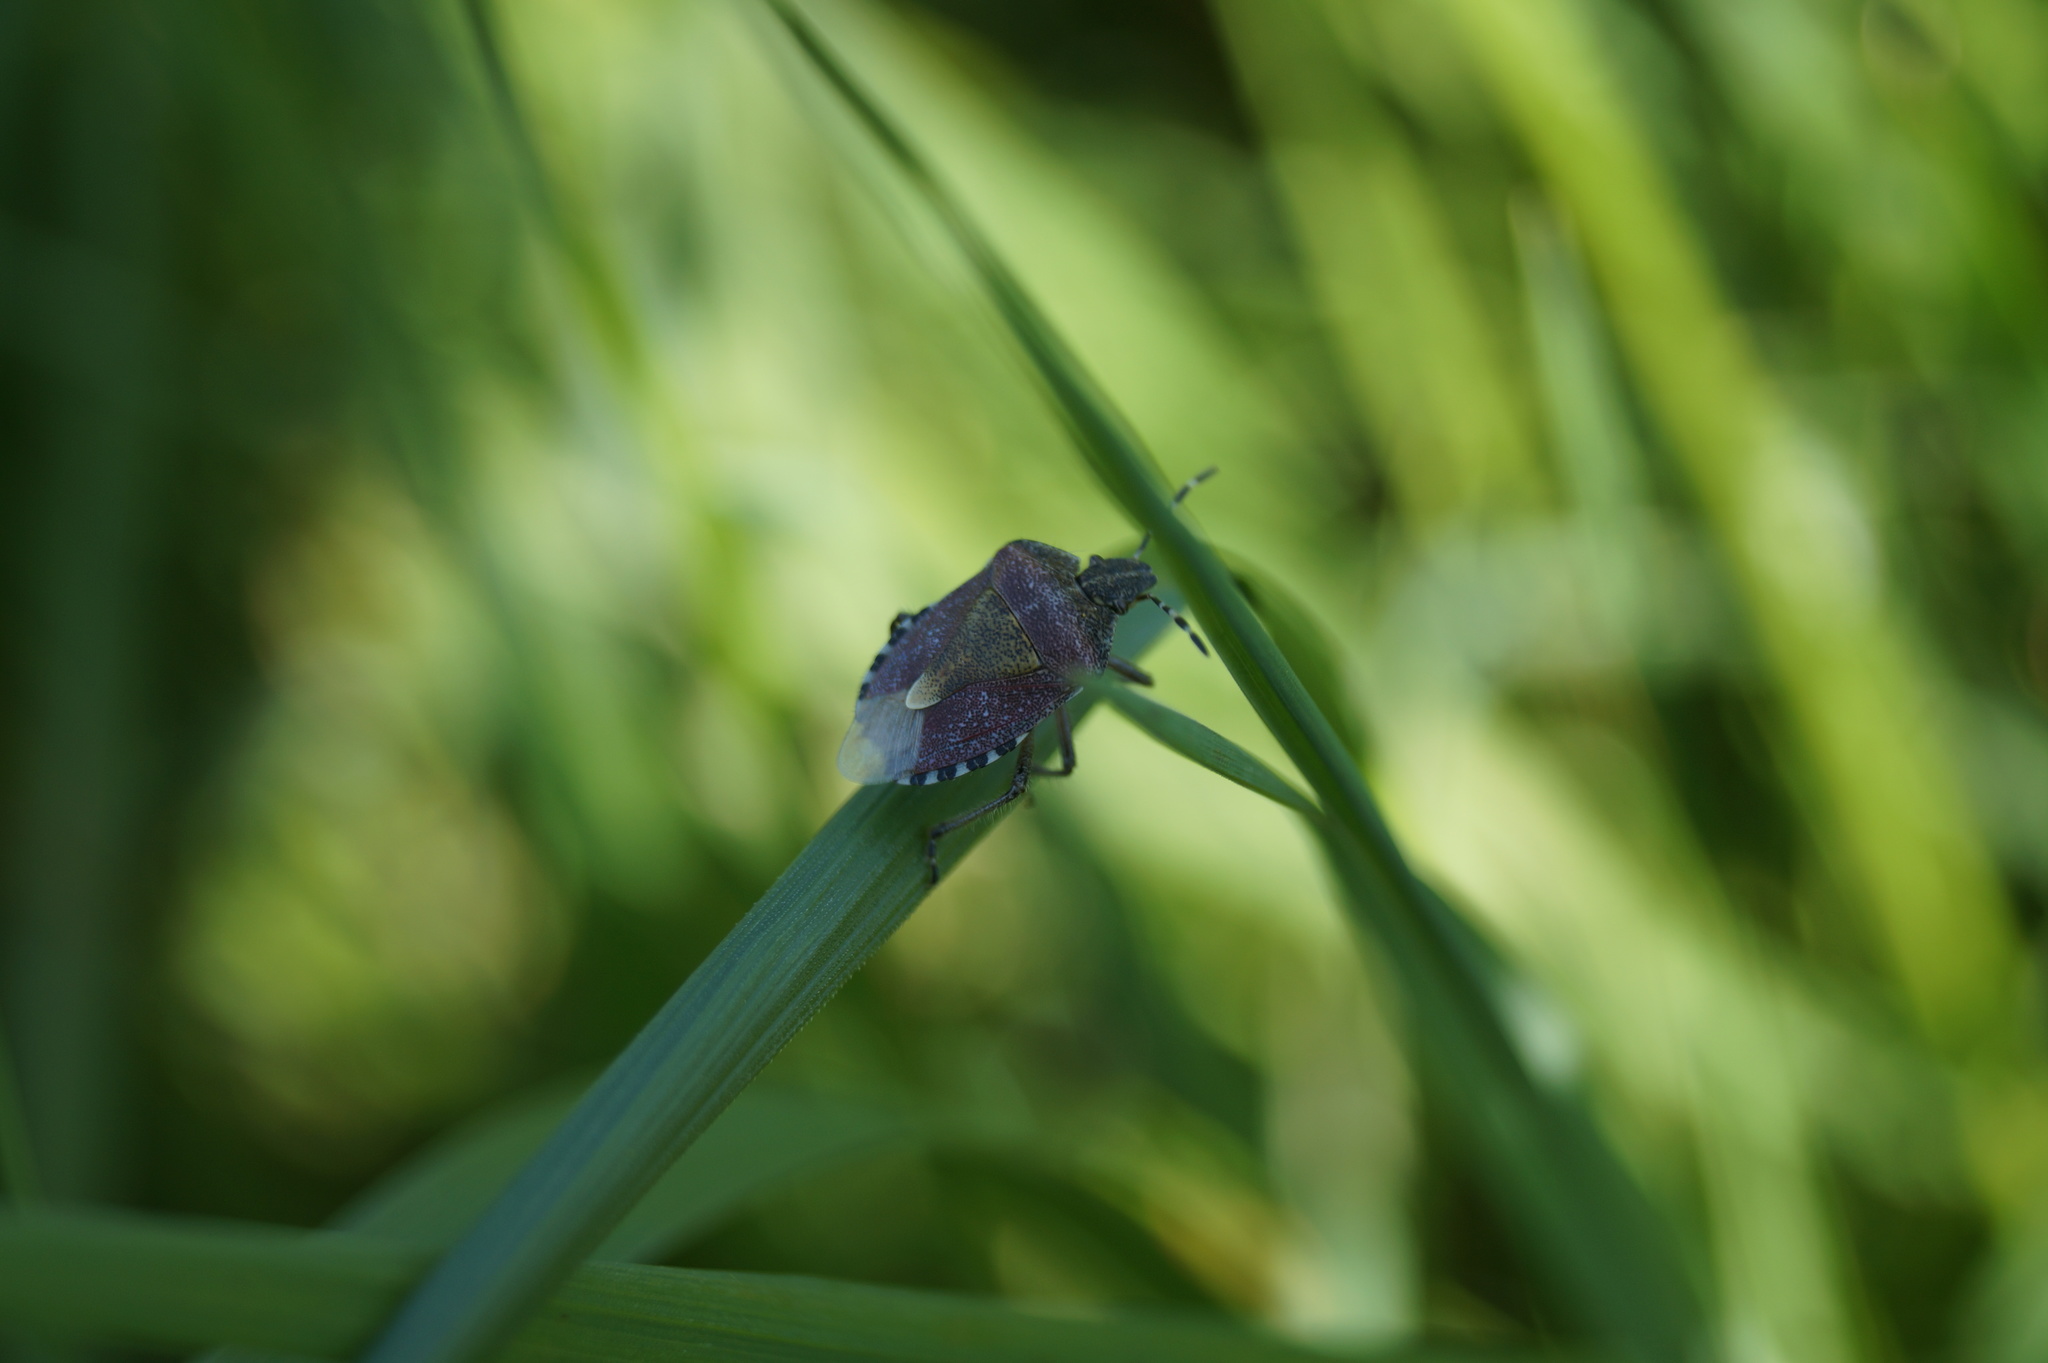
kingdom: Animalia
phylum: Arthropoda
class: Insecta
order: Hemiptera
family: Pentatomidae
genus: Dolycoris
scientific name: Dolycoris baccarum
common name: Sloe bug
